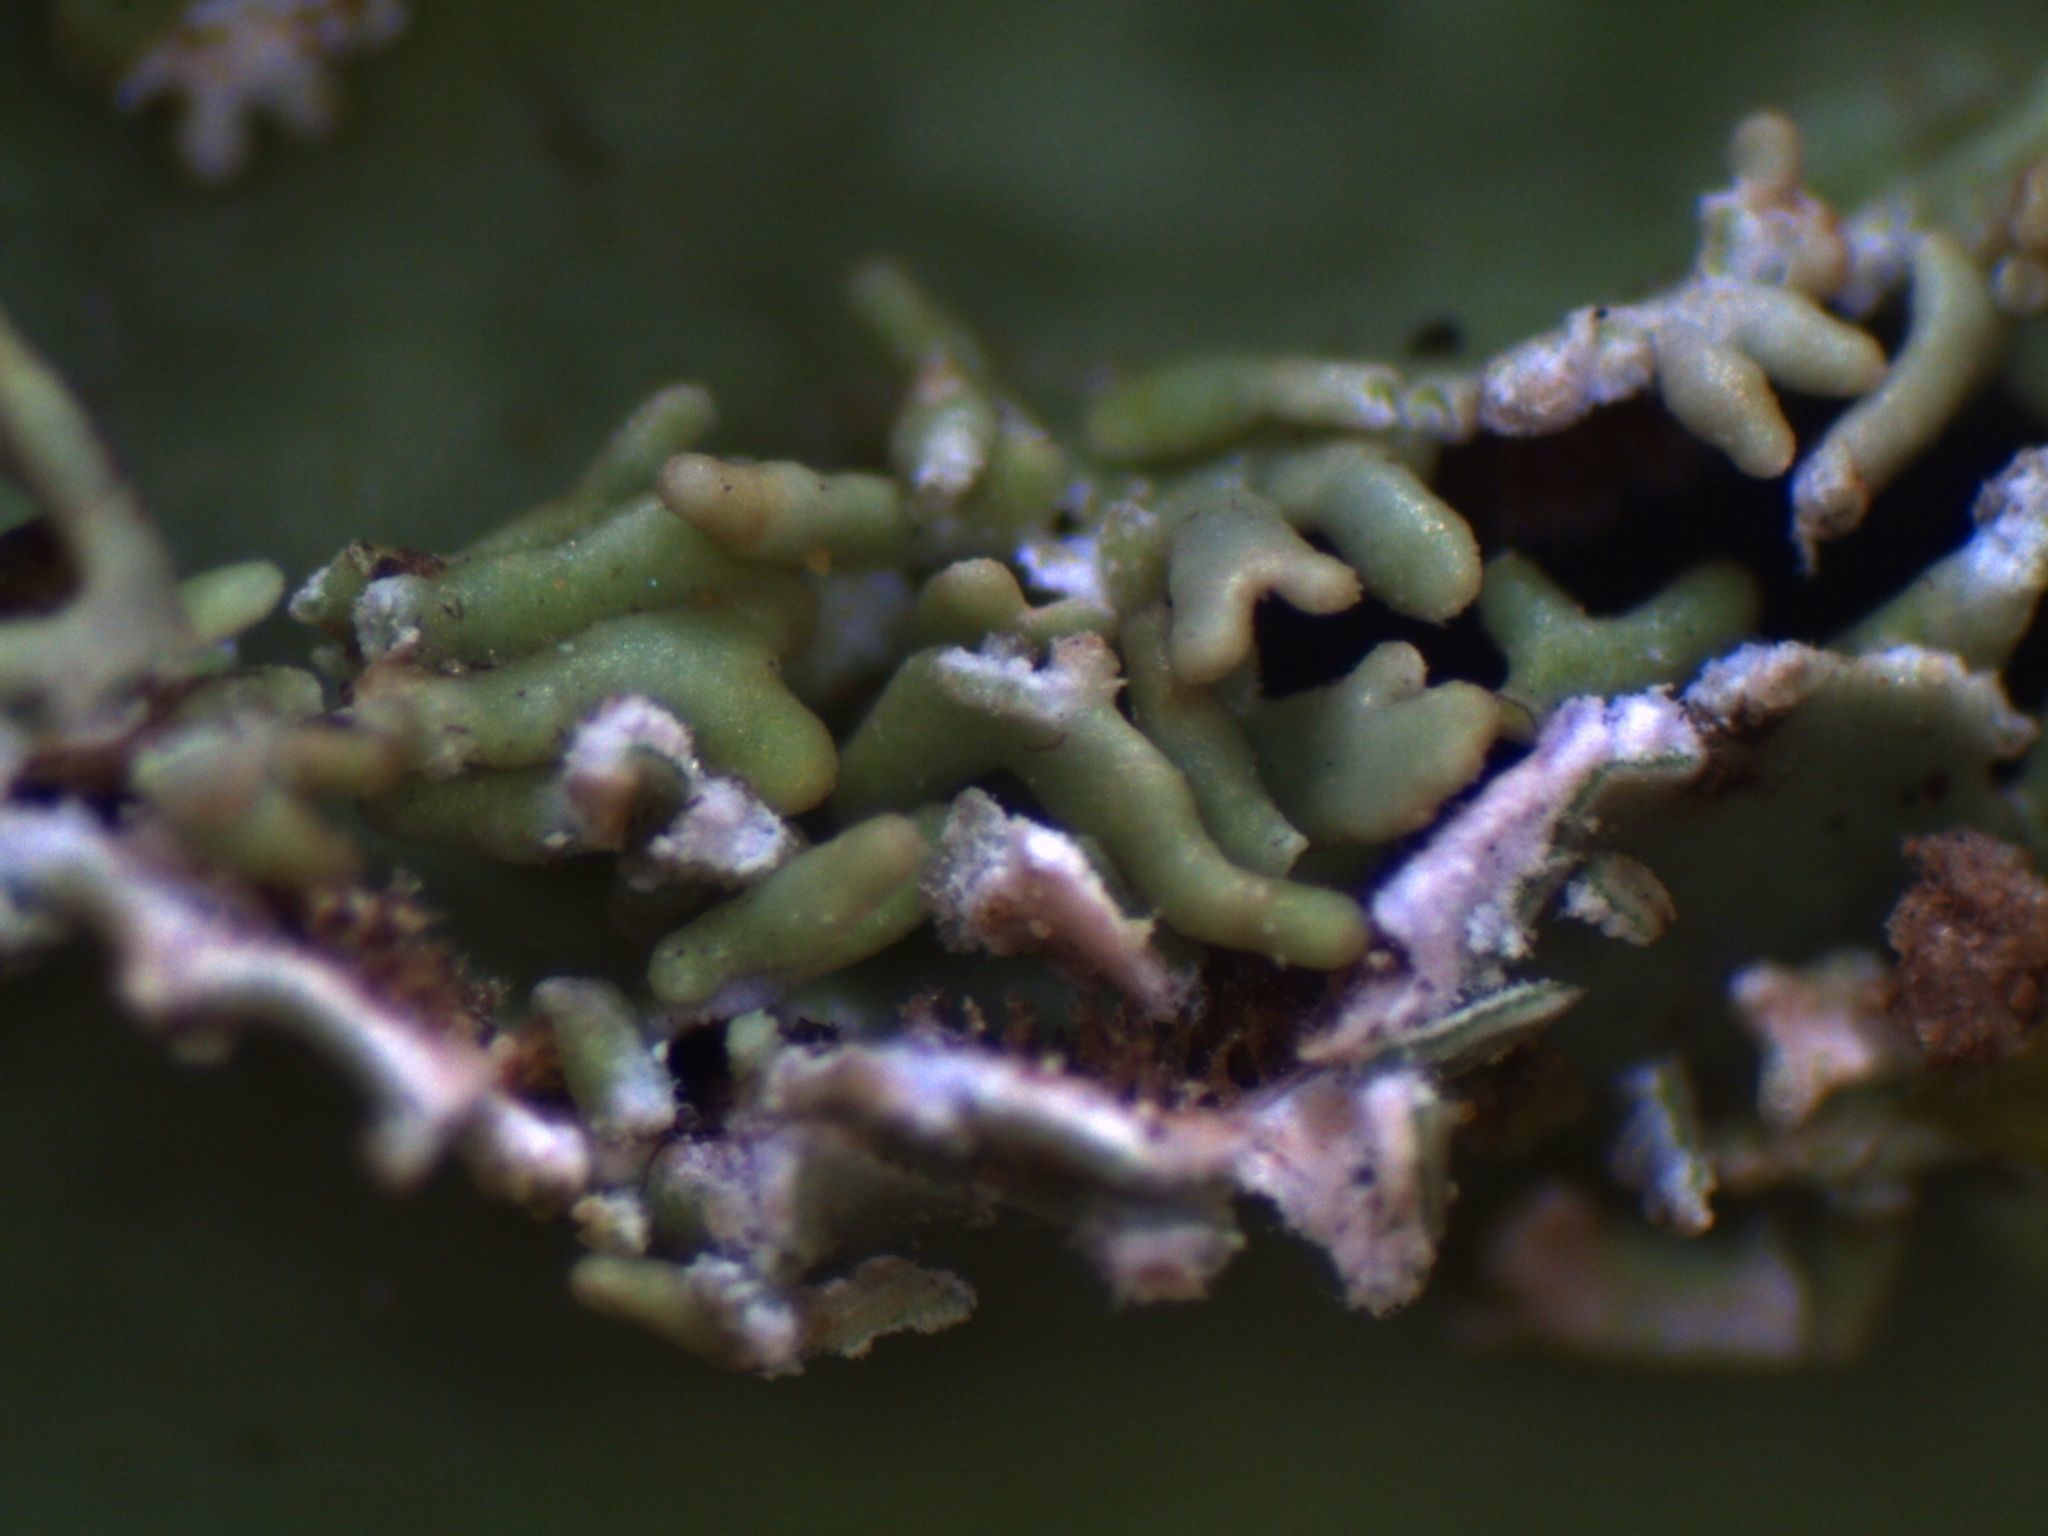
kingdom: Fungi
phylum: Ascomycota
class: Lecanoromycetes
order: Peltigerales
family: Lobariaceae
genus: Pseudocyphellaria
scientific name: Pseudocyphellaria glabra
